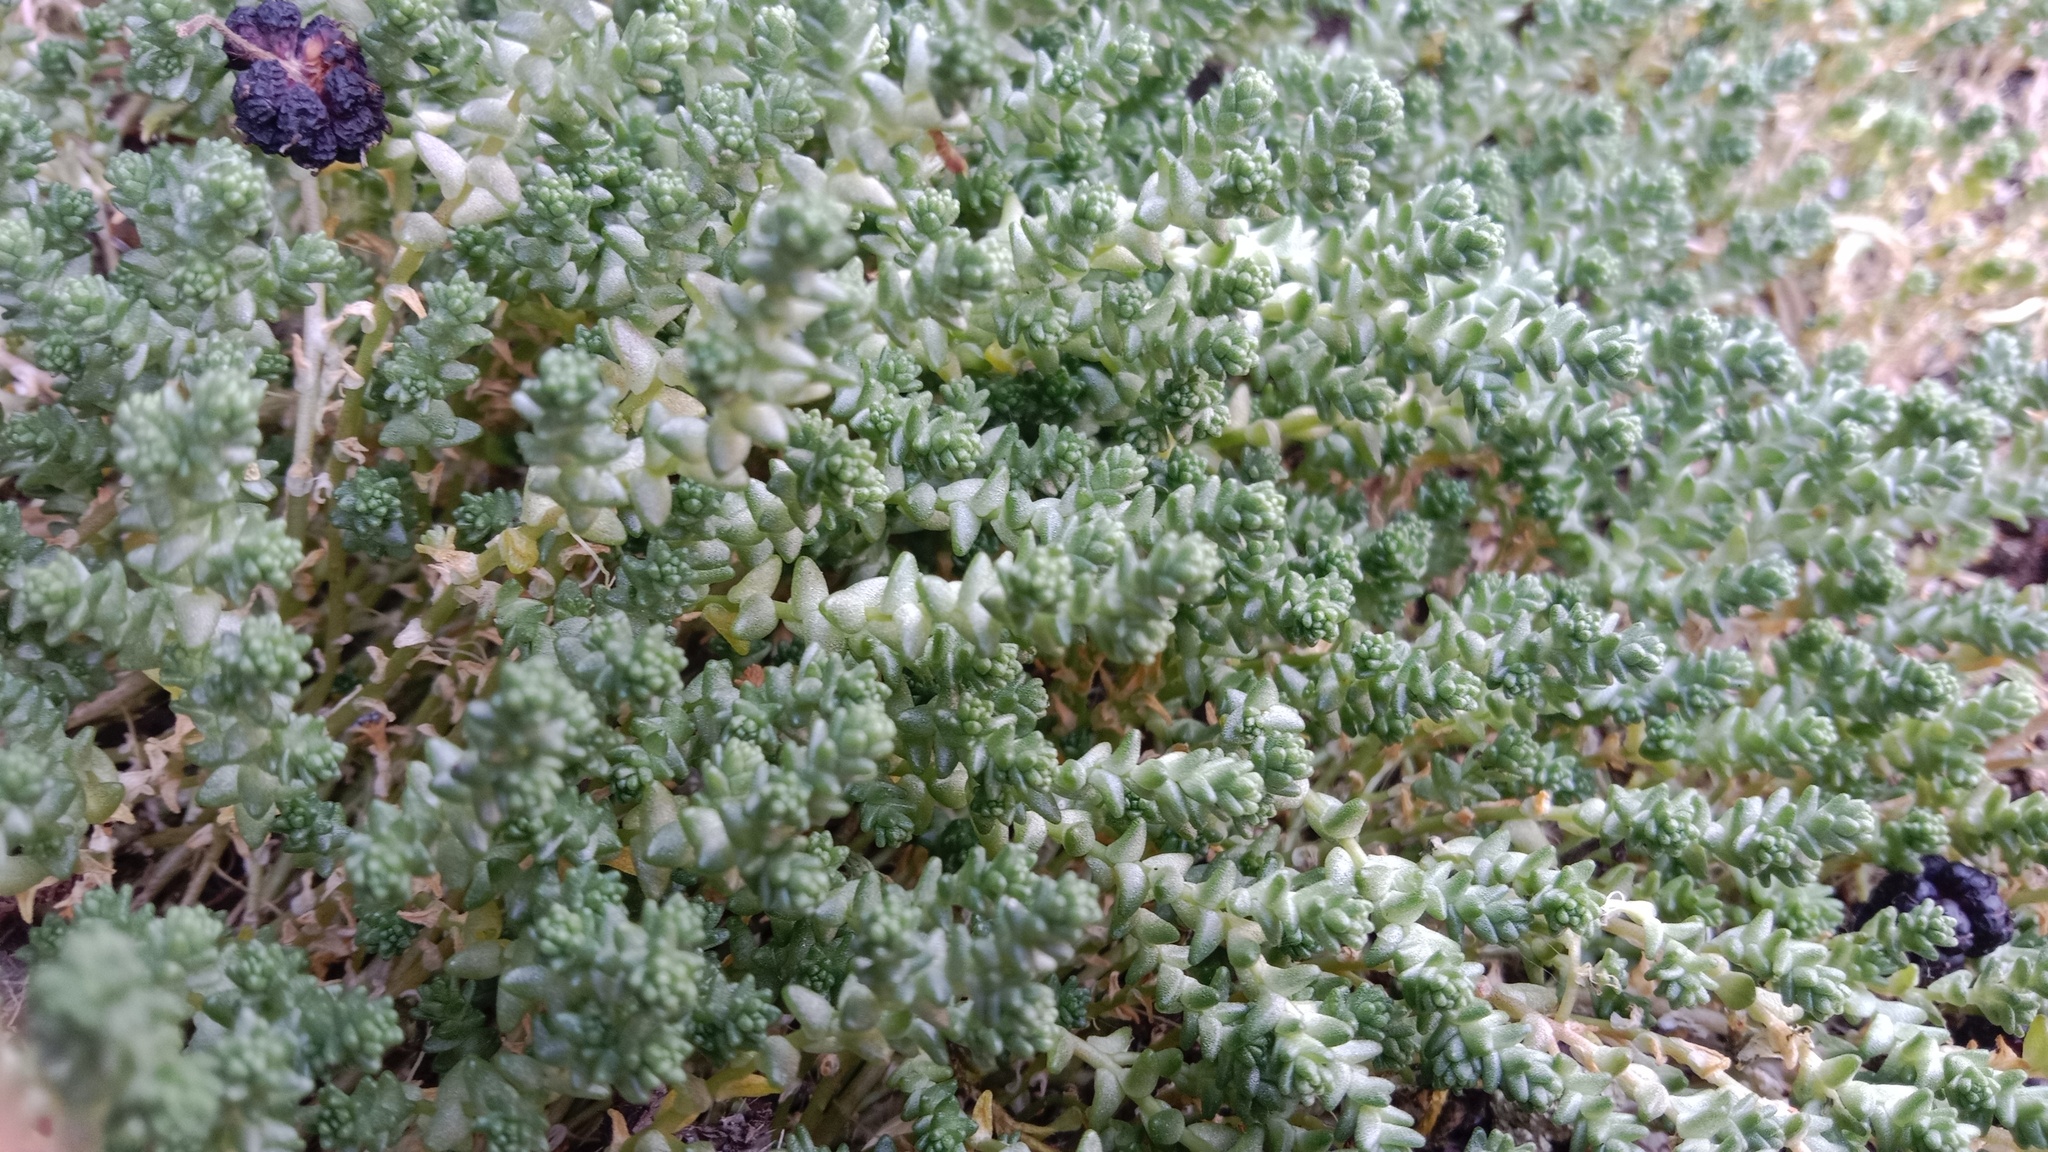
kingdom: Plantae
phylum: Tracheophyta
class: Magnoliopsida
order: Saxifragales
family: Crassulaceae
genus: Sedum
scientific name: Sedum acre
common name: Biting stonecrop
